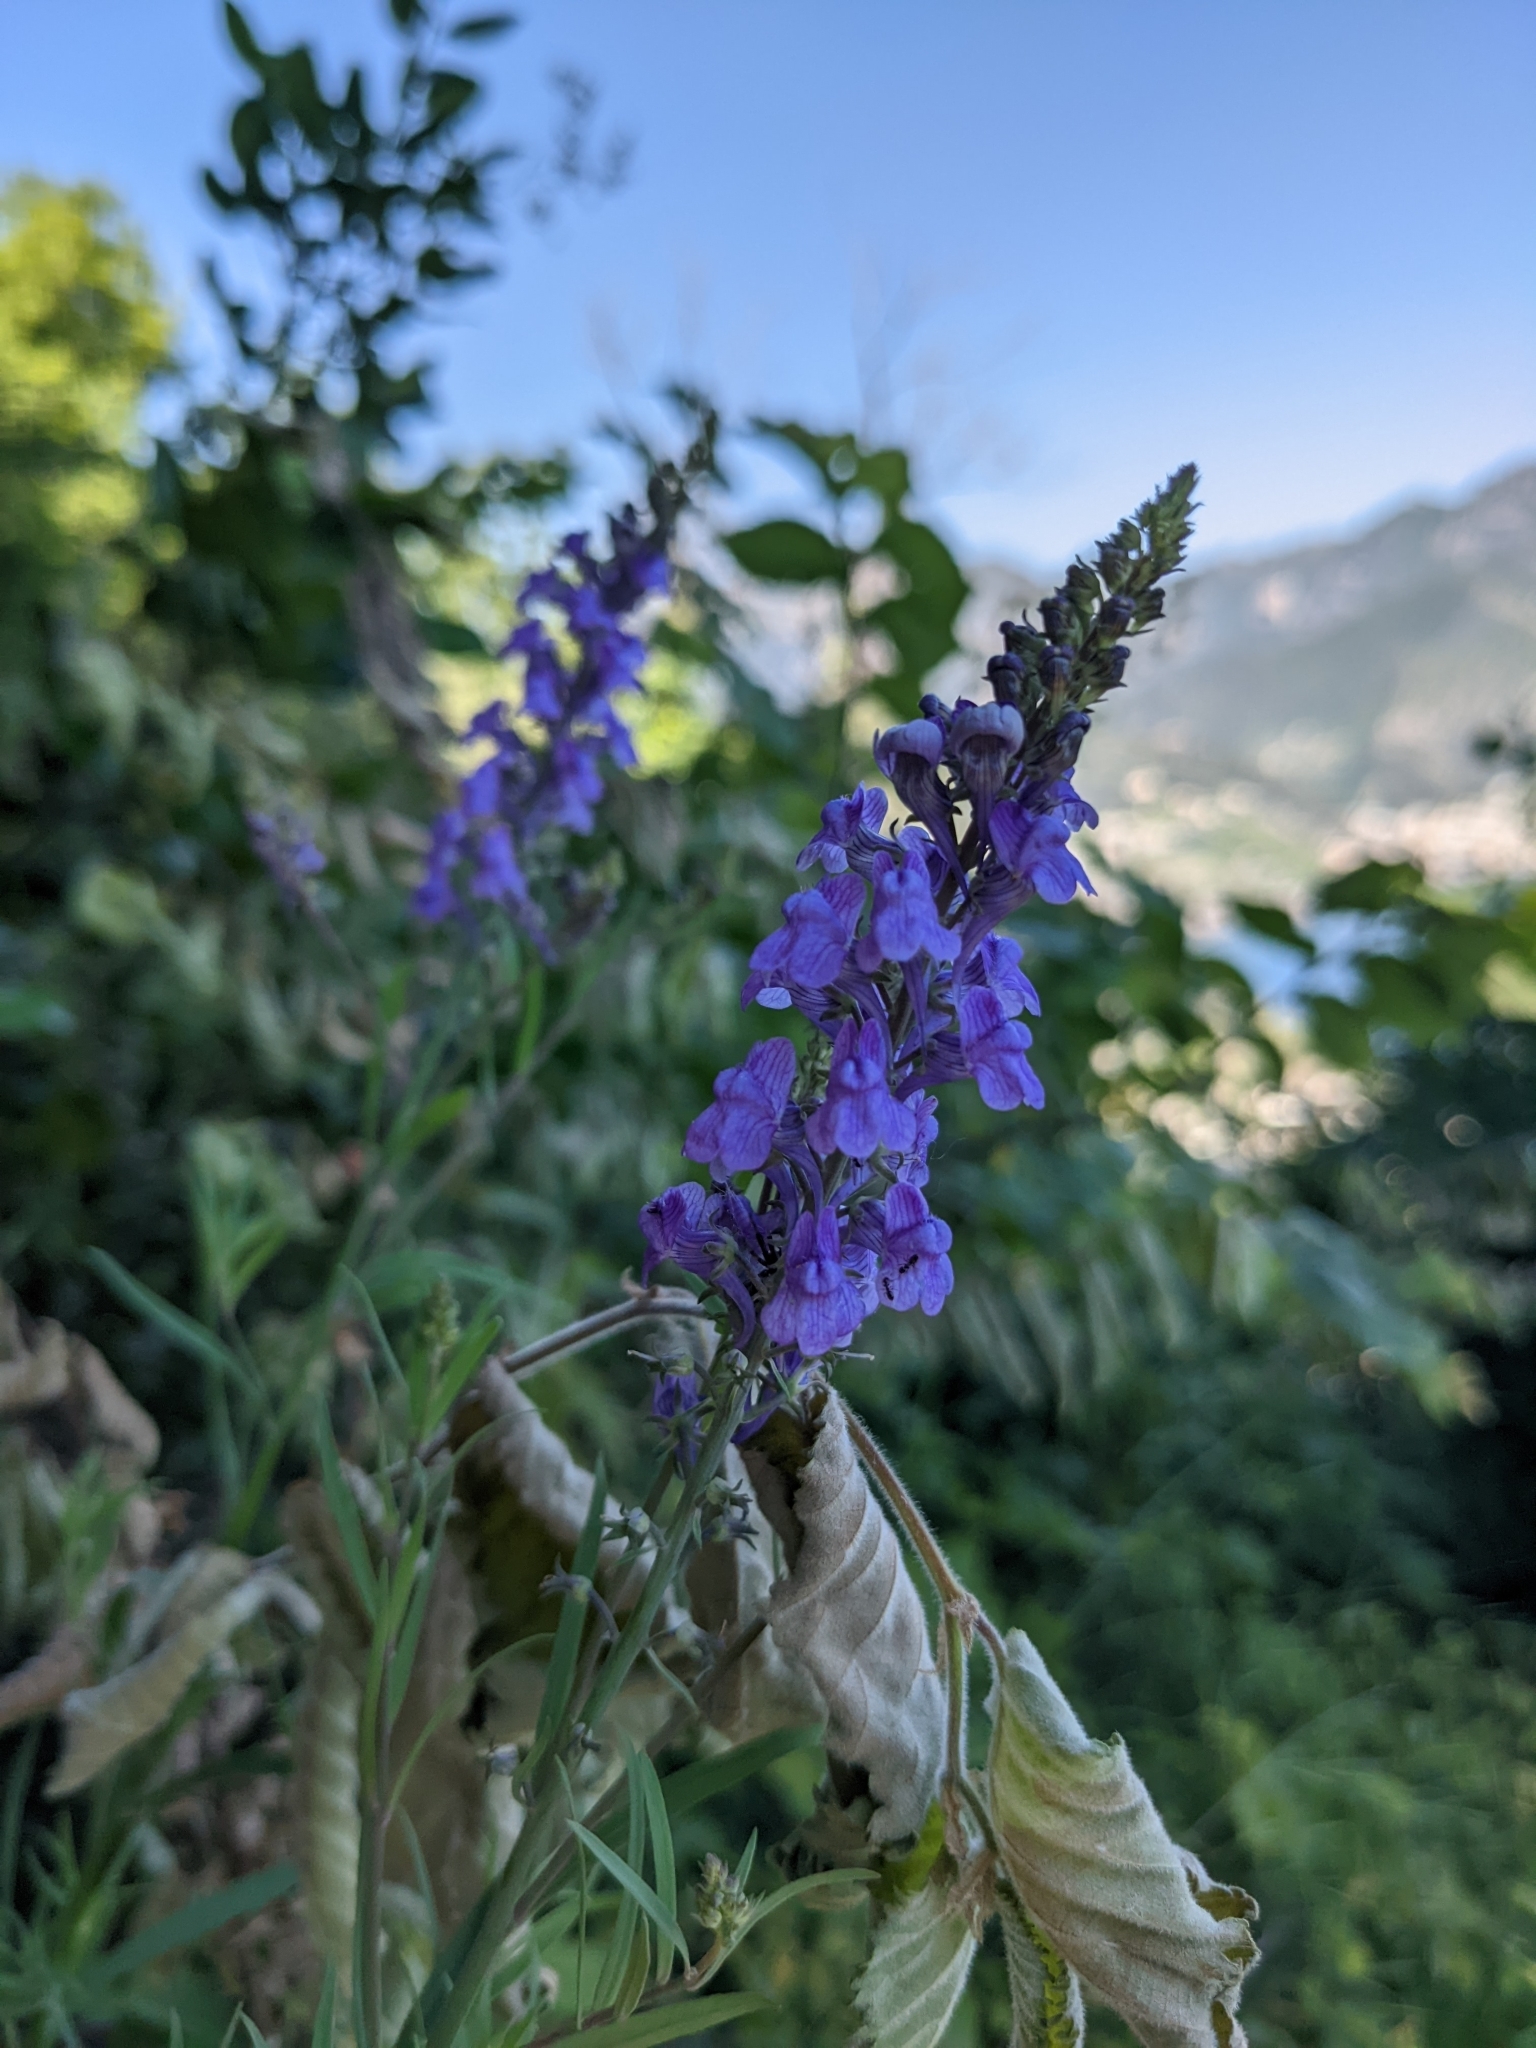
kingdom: Plantae
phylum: Tracheophyta
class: Magnoliopsida
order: Lamiales
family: Plantaginaceae
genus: Linaria
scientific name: Linaria purpurea
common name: Purple toadflax
